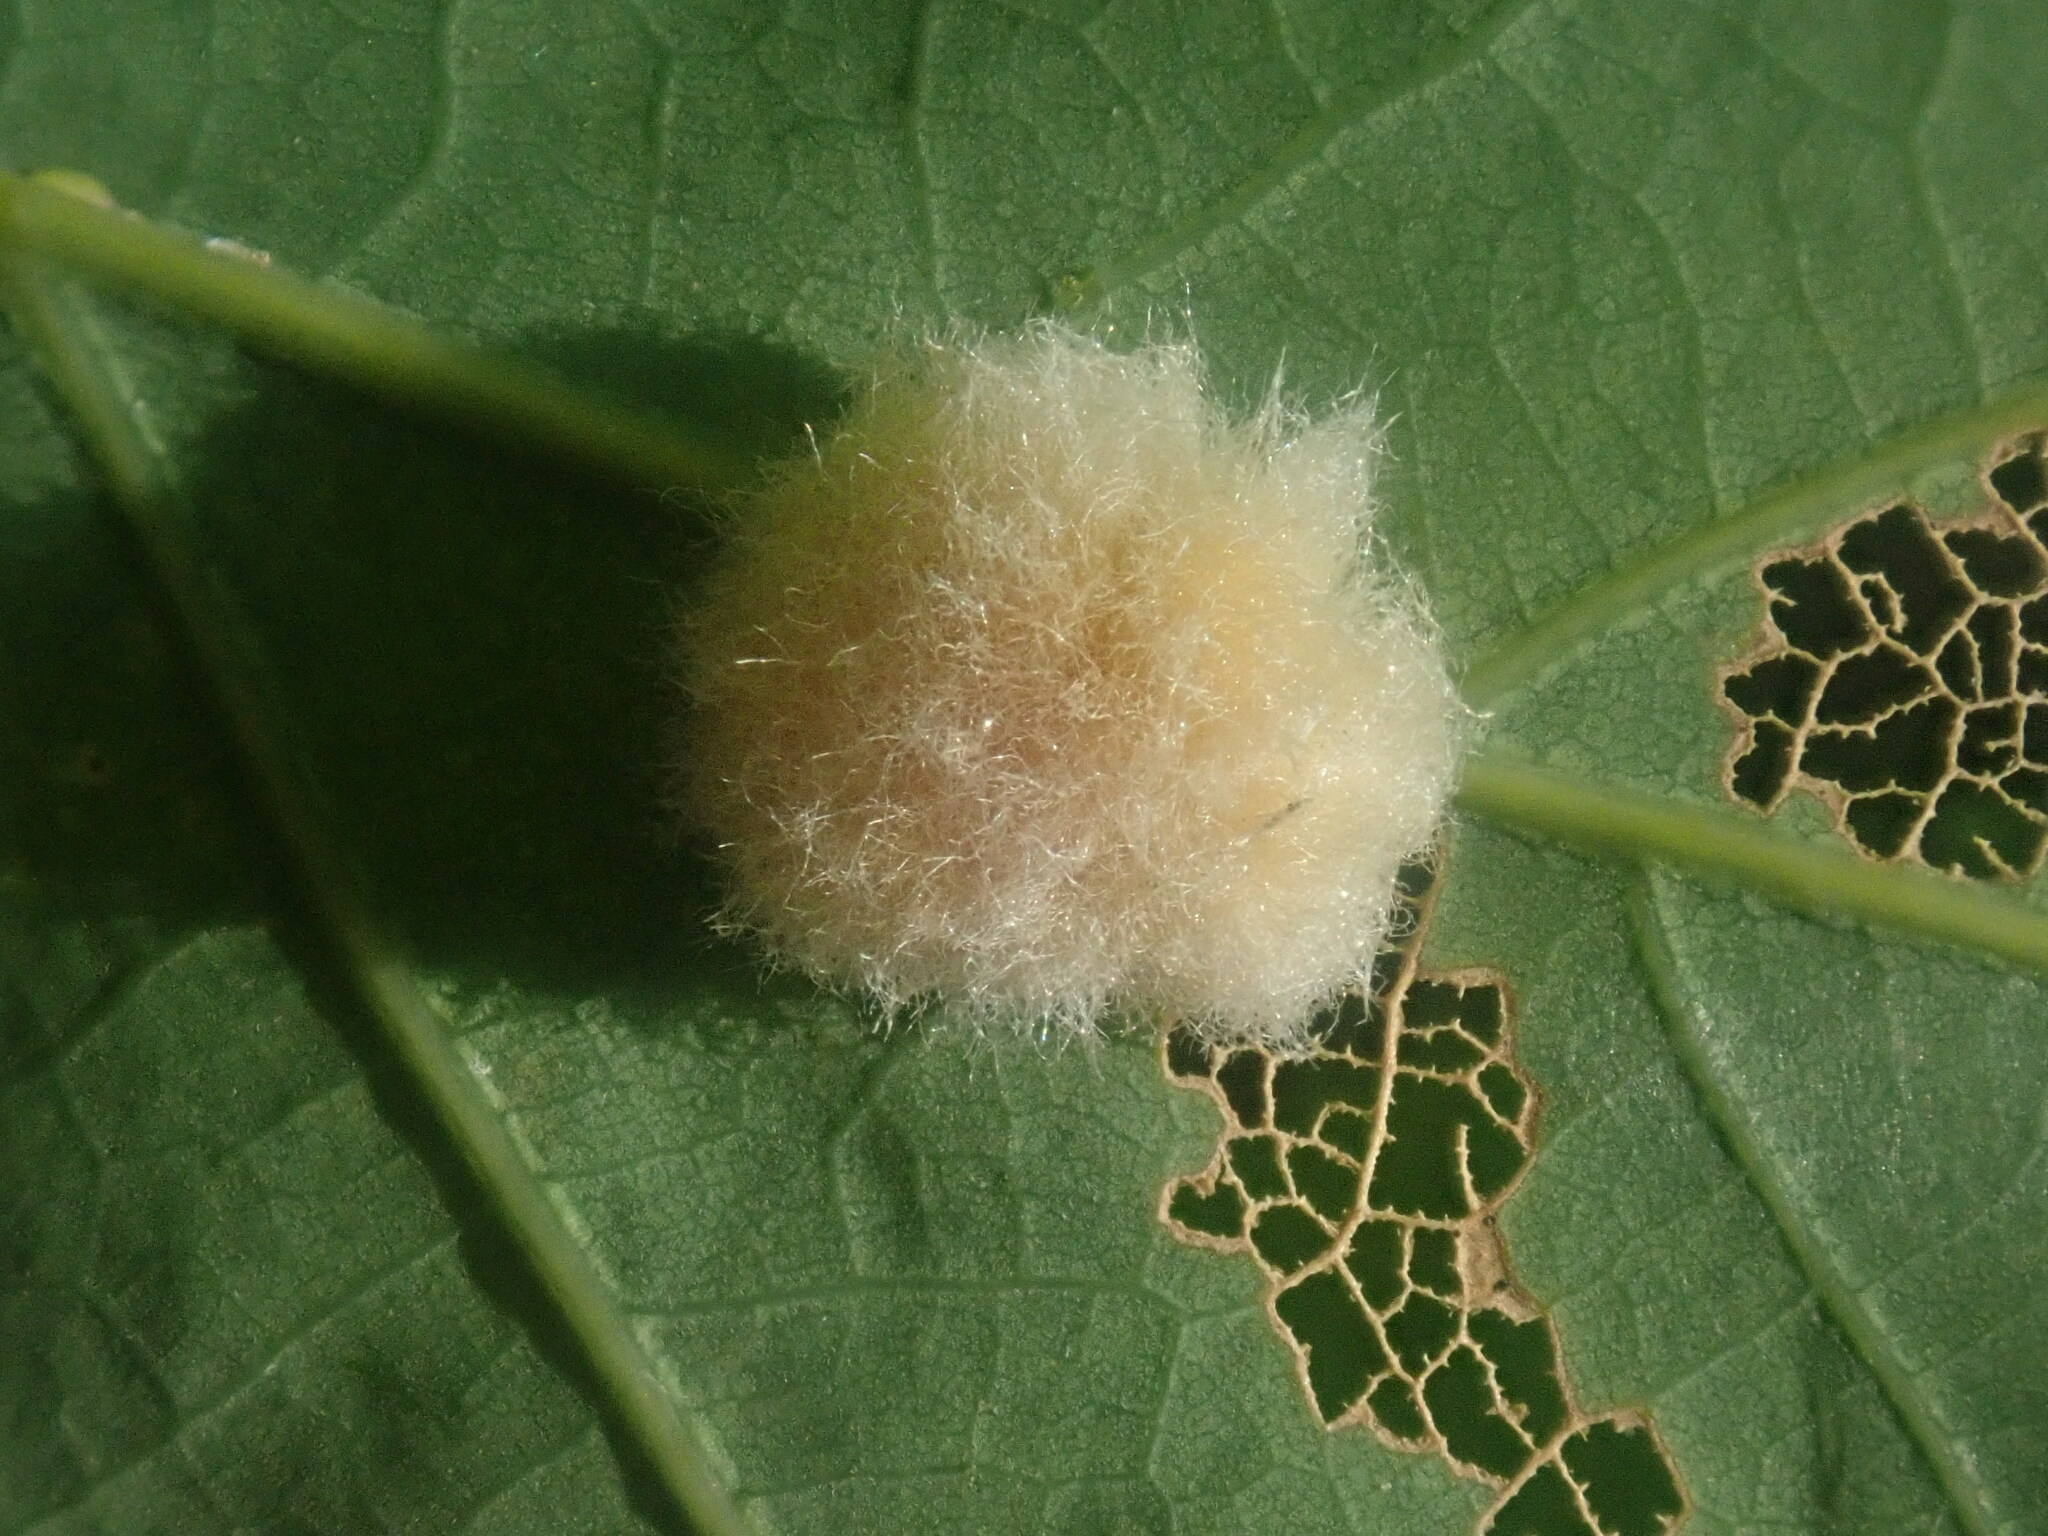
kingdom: Animalia
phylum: Arthropoda
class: Insecta
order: Hymenoptera
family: Cynipidae
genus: Callirhytis
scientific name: Callirhytis
